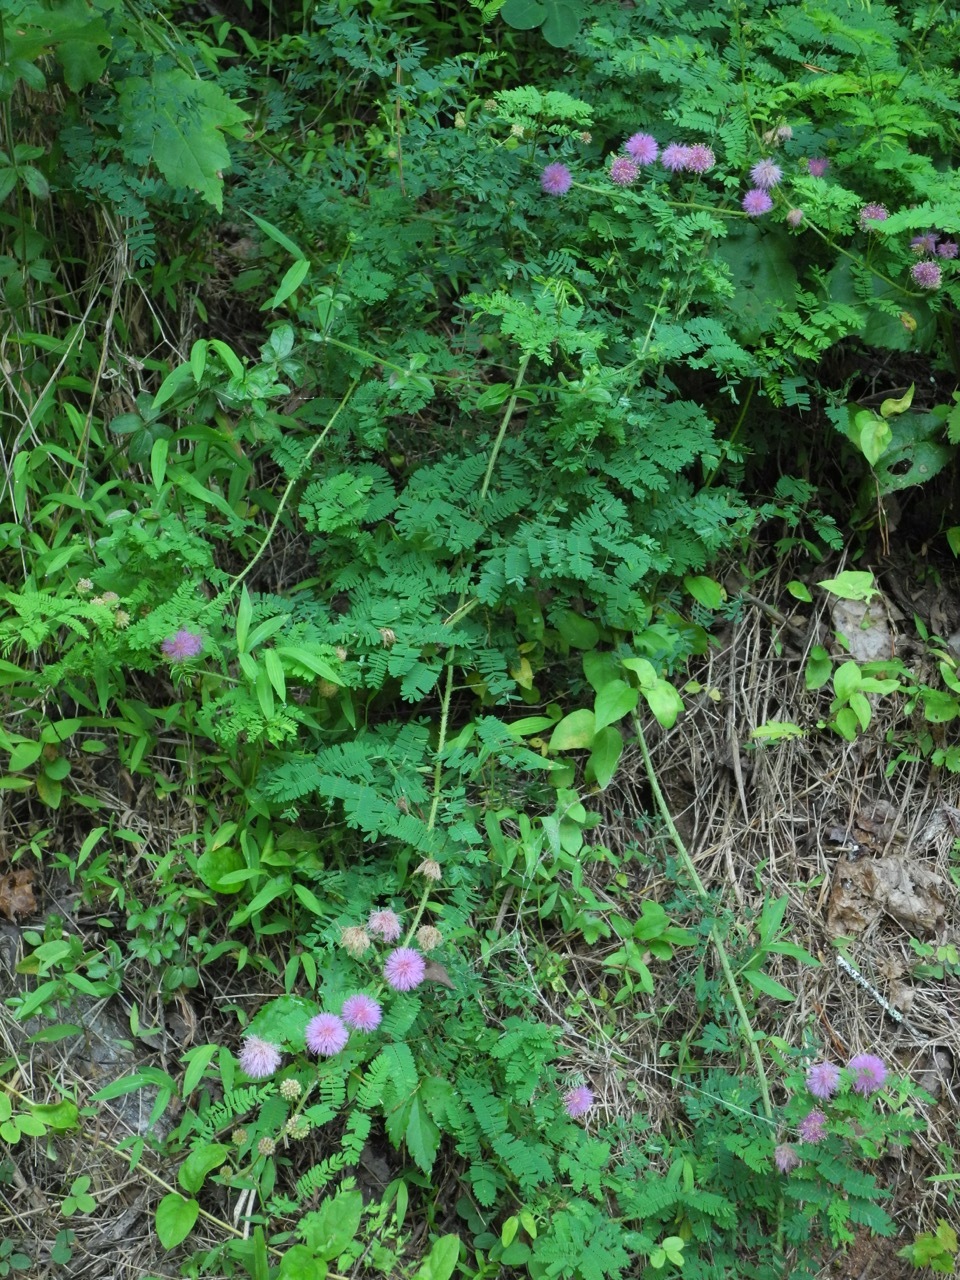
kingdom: Plantae
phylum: Tracheophyta
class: Magnoliopsida
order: Fabales
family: Fabaceae
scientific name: Fabaceae
